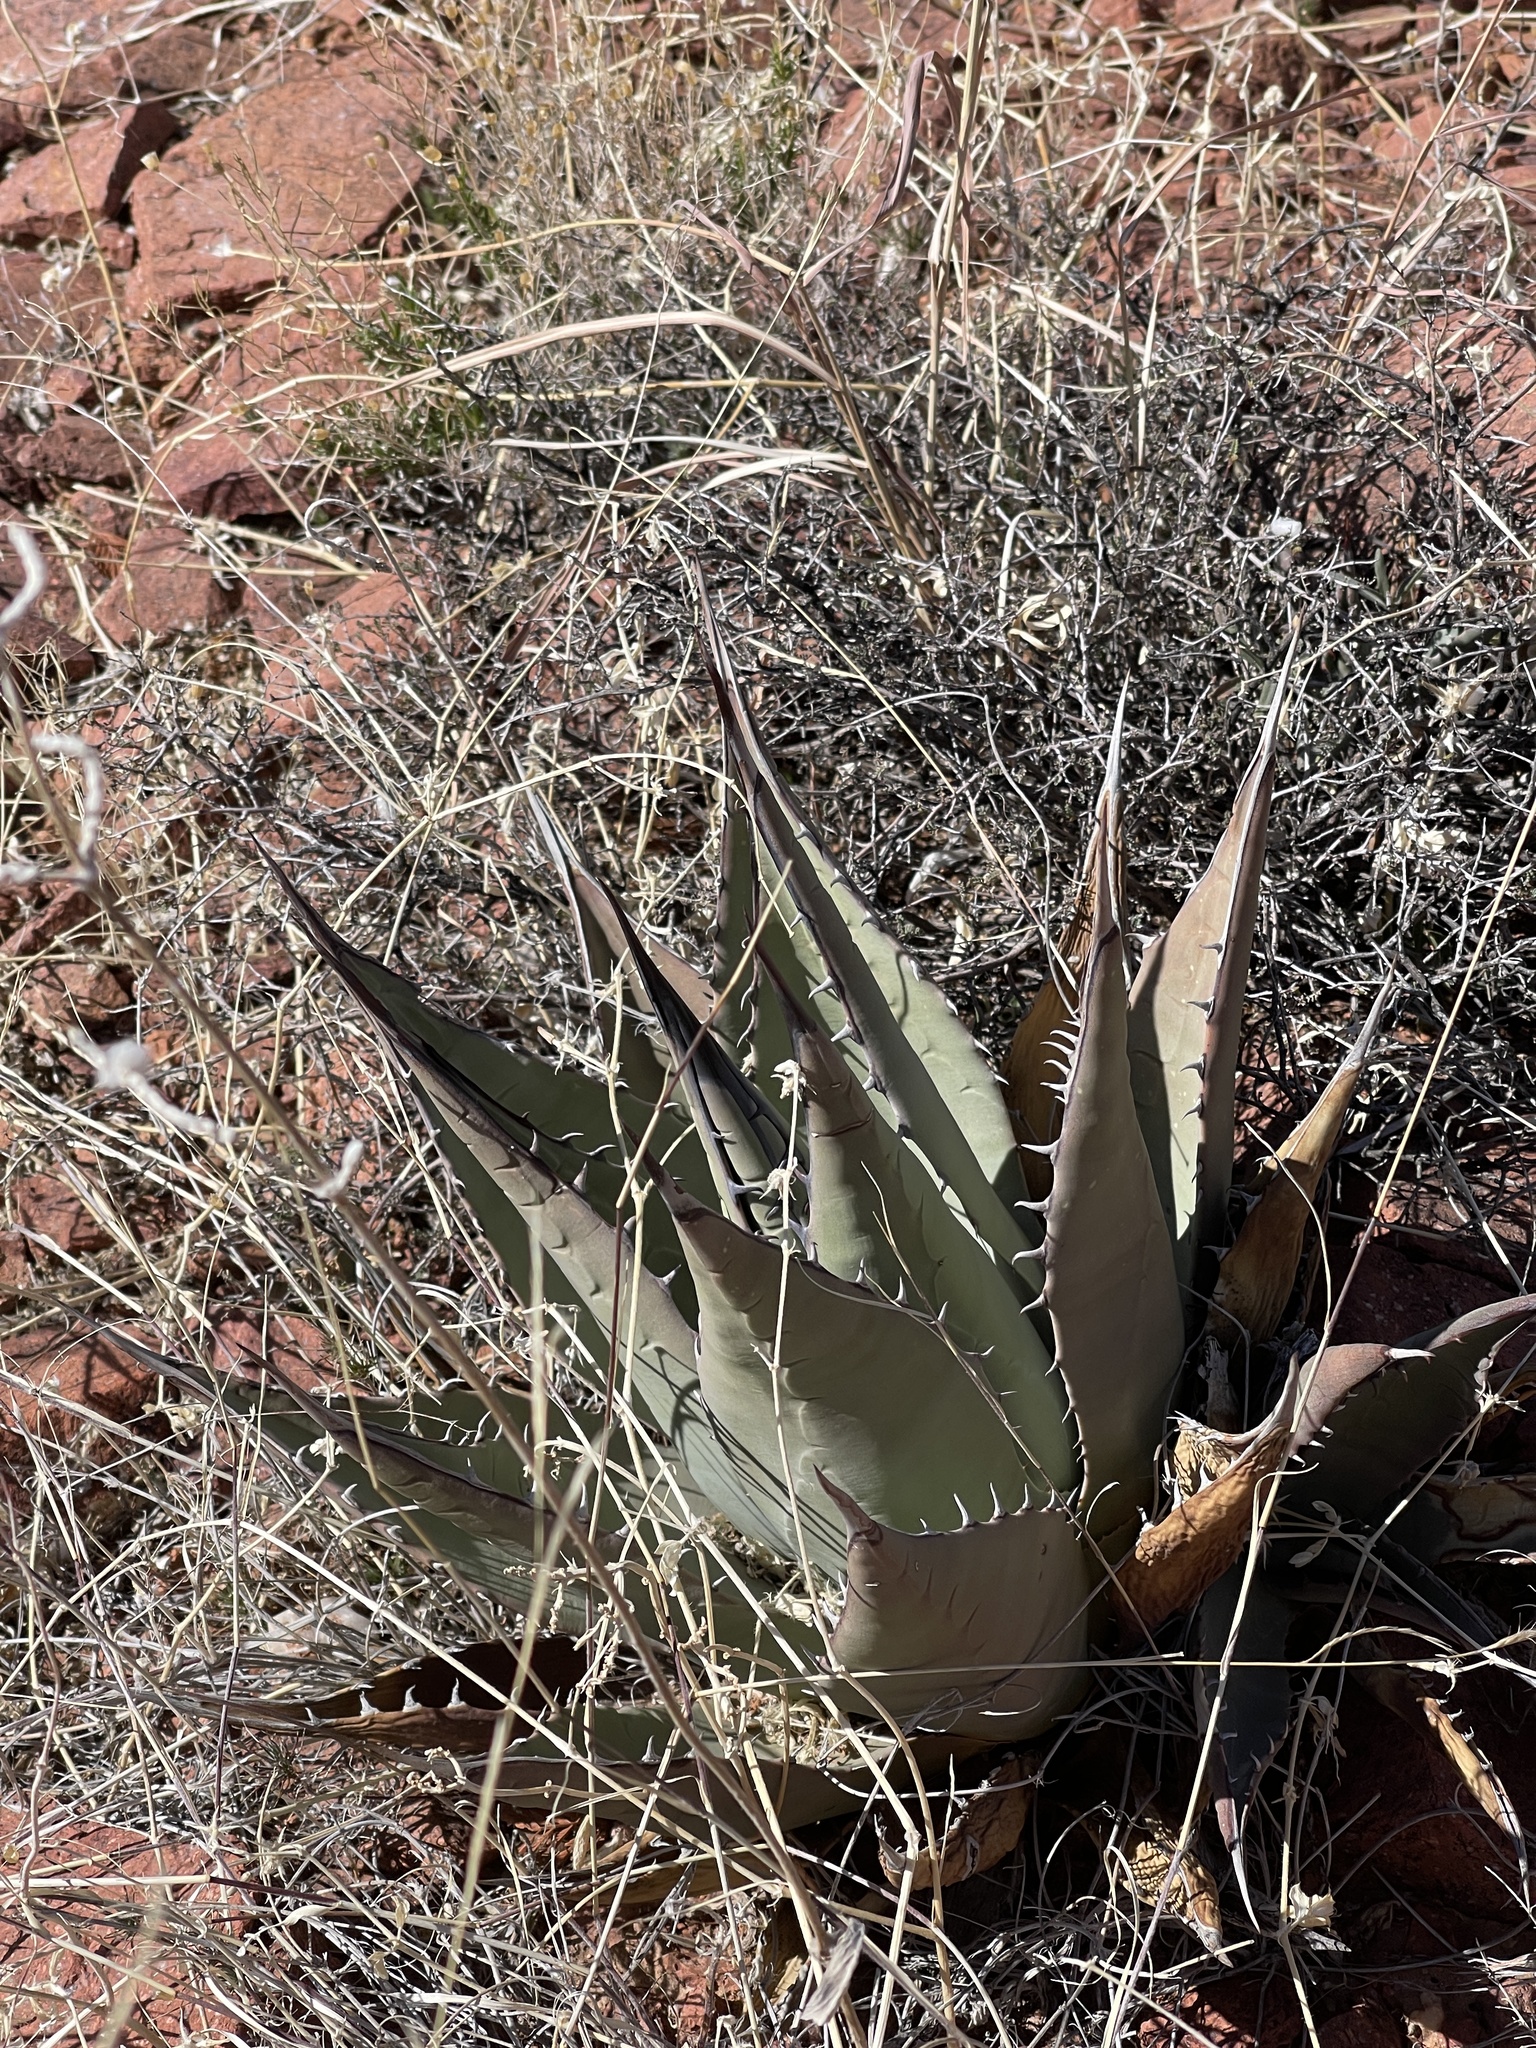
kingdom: Plantae
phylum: Tracheophyta
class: Liliopsida
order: Asparagales
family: Asparagaceae
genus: Agave
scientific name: Agave parryi
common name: Parry's agave
